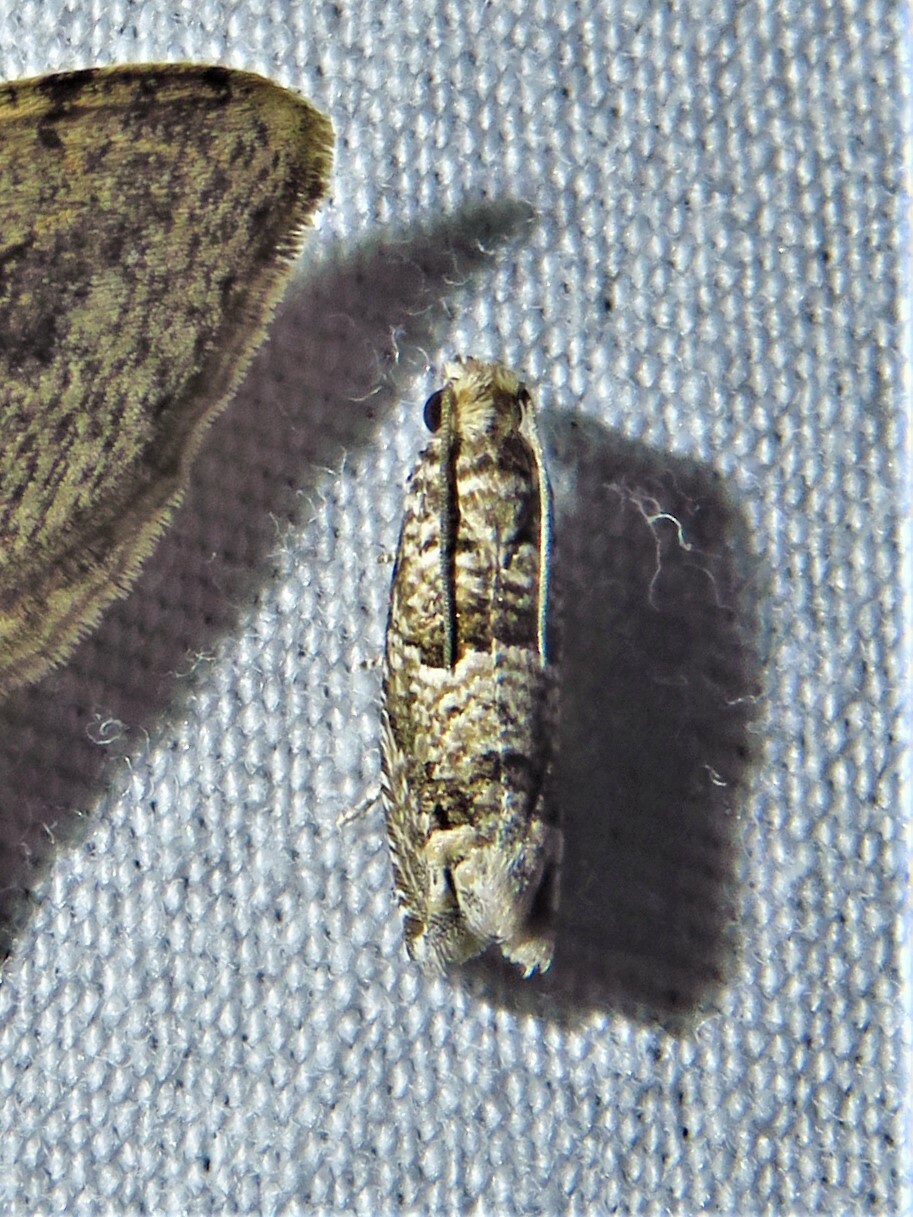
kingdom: Animalia
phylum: Arthropoda
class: Insecta
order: Lepidoptera
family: Tortricidae
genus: Pelochrista
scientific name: Pelochrista salaciana
